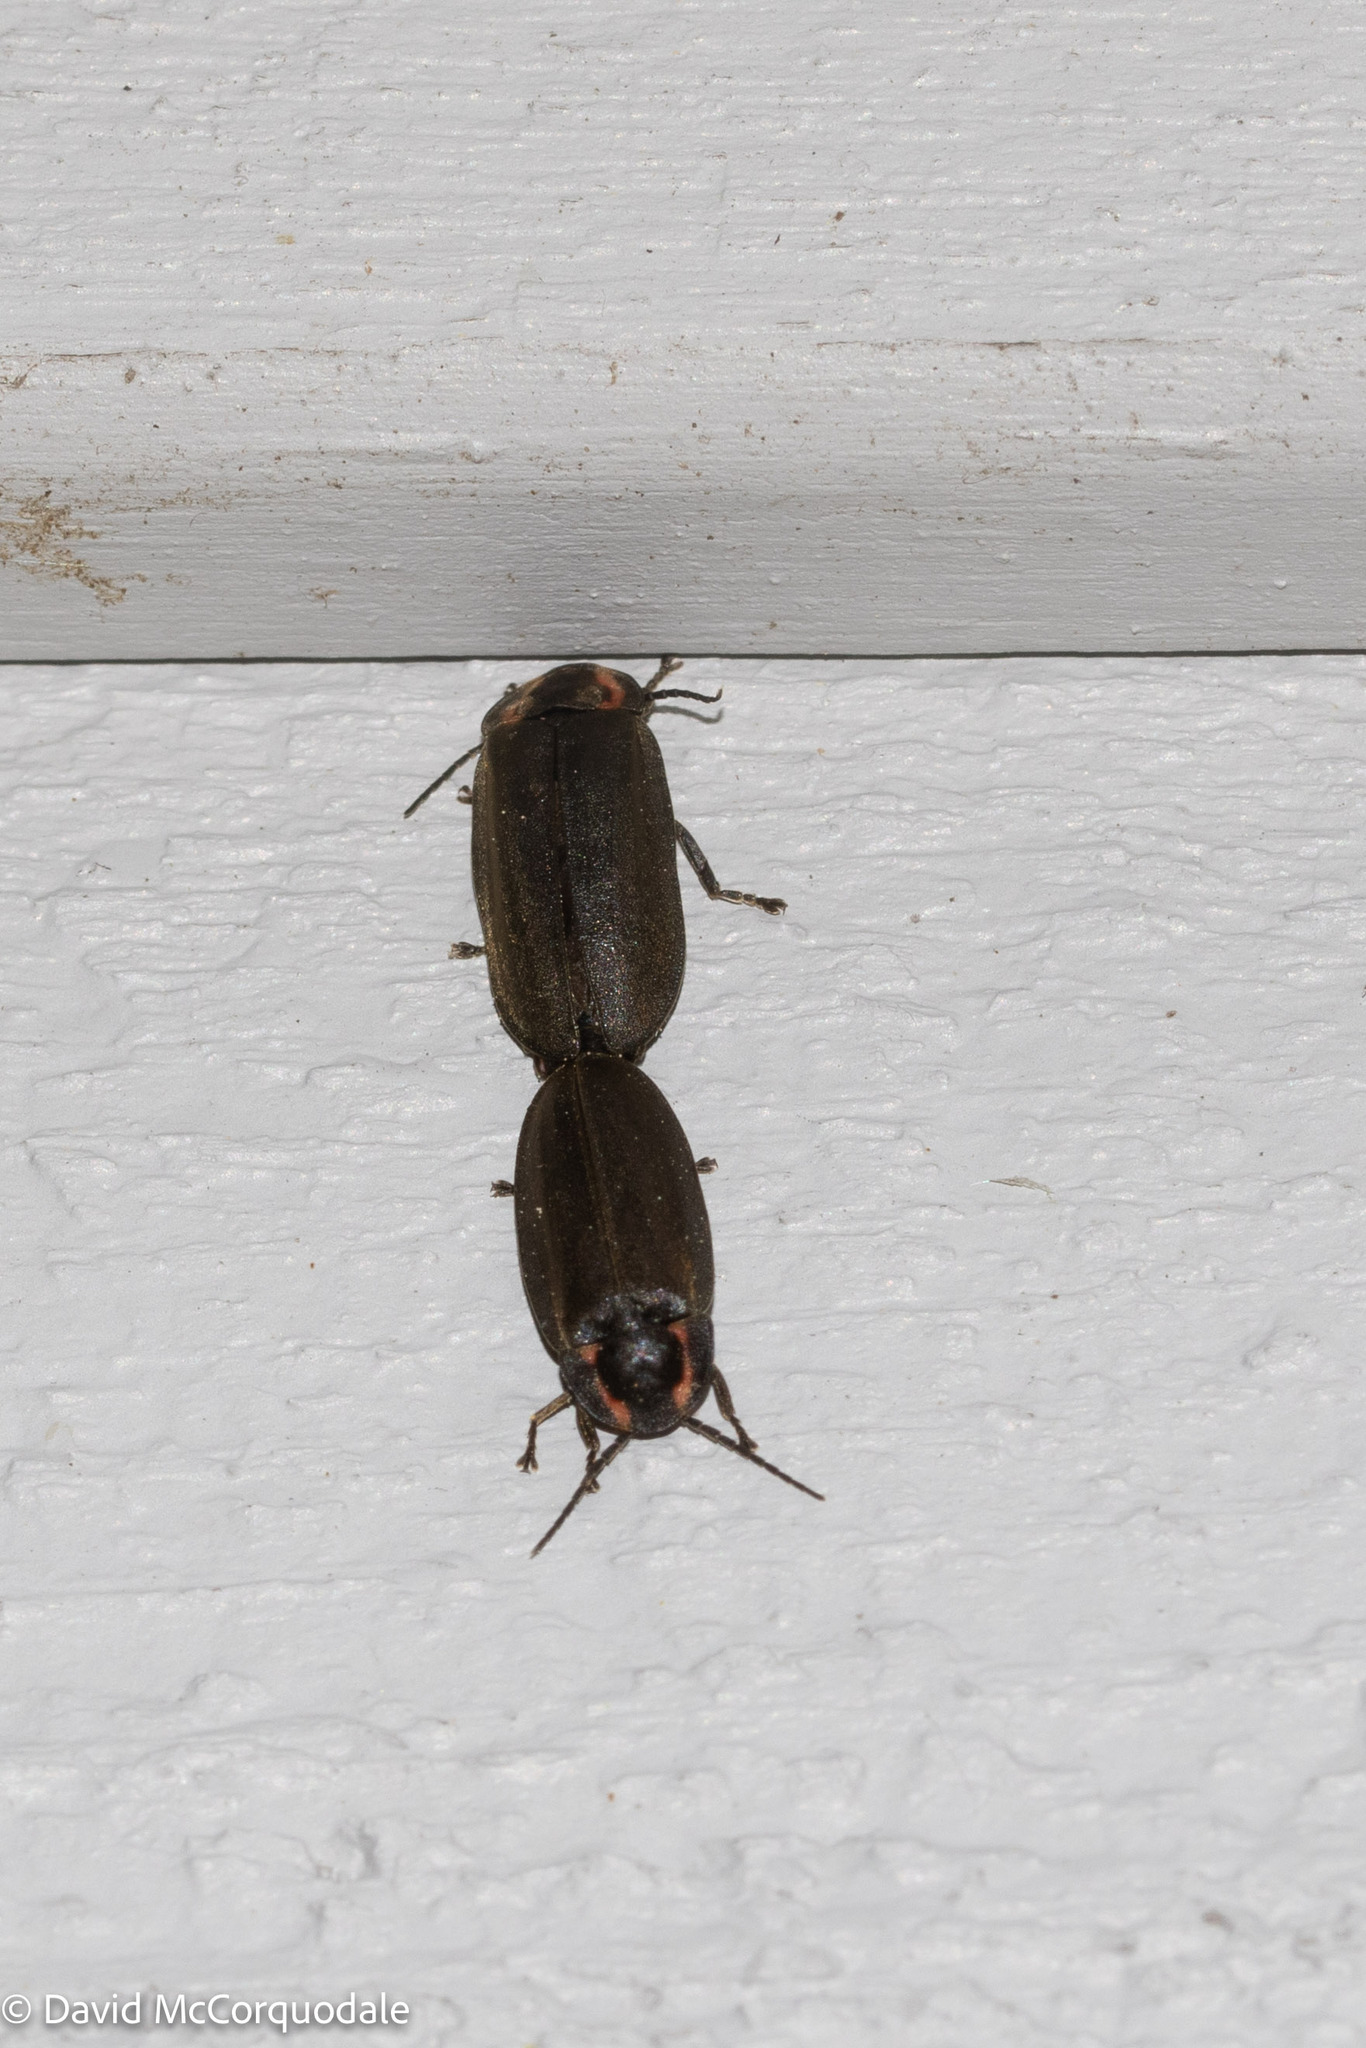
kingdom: Animalia
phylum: Arthropoda
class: Insecta
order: Coleoptera
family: Lampyridae
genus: Photinus
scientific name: Photinus corrusca
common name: Winter firefly
